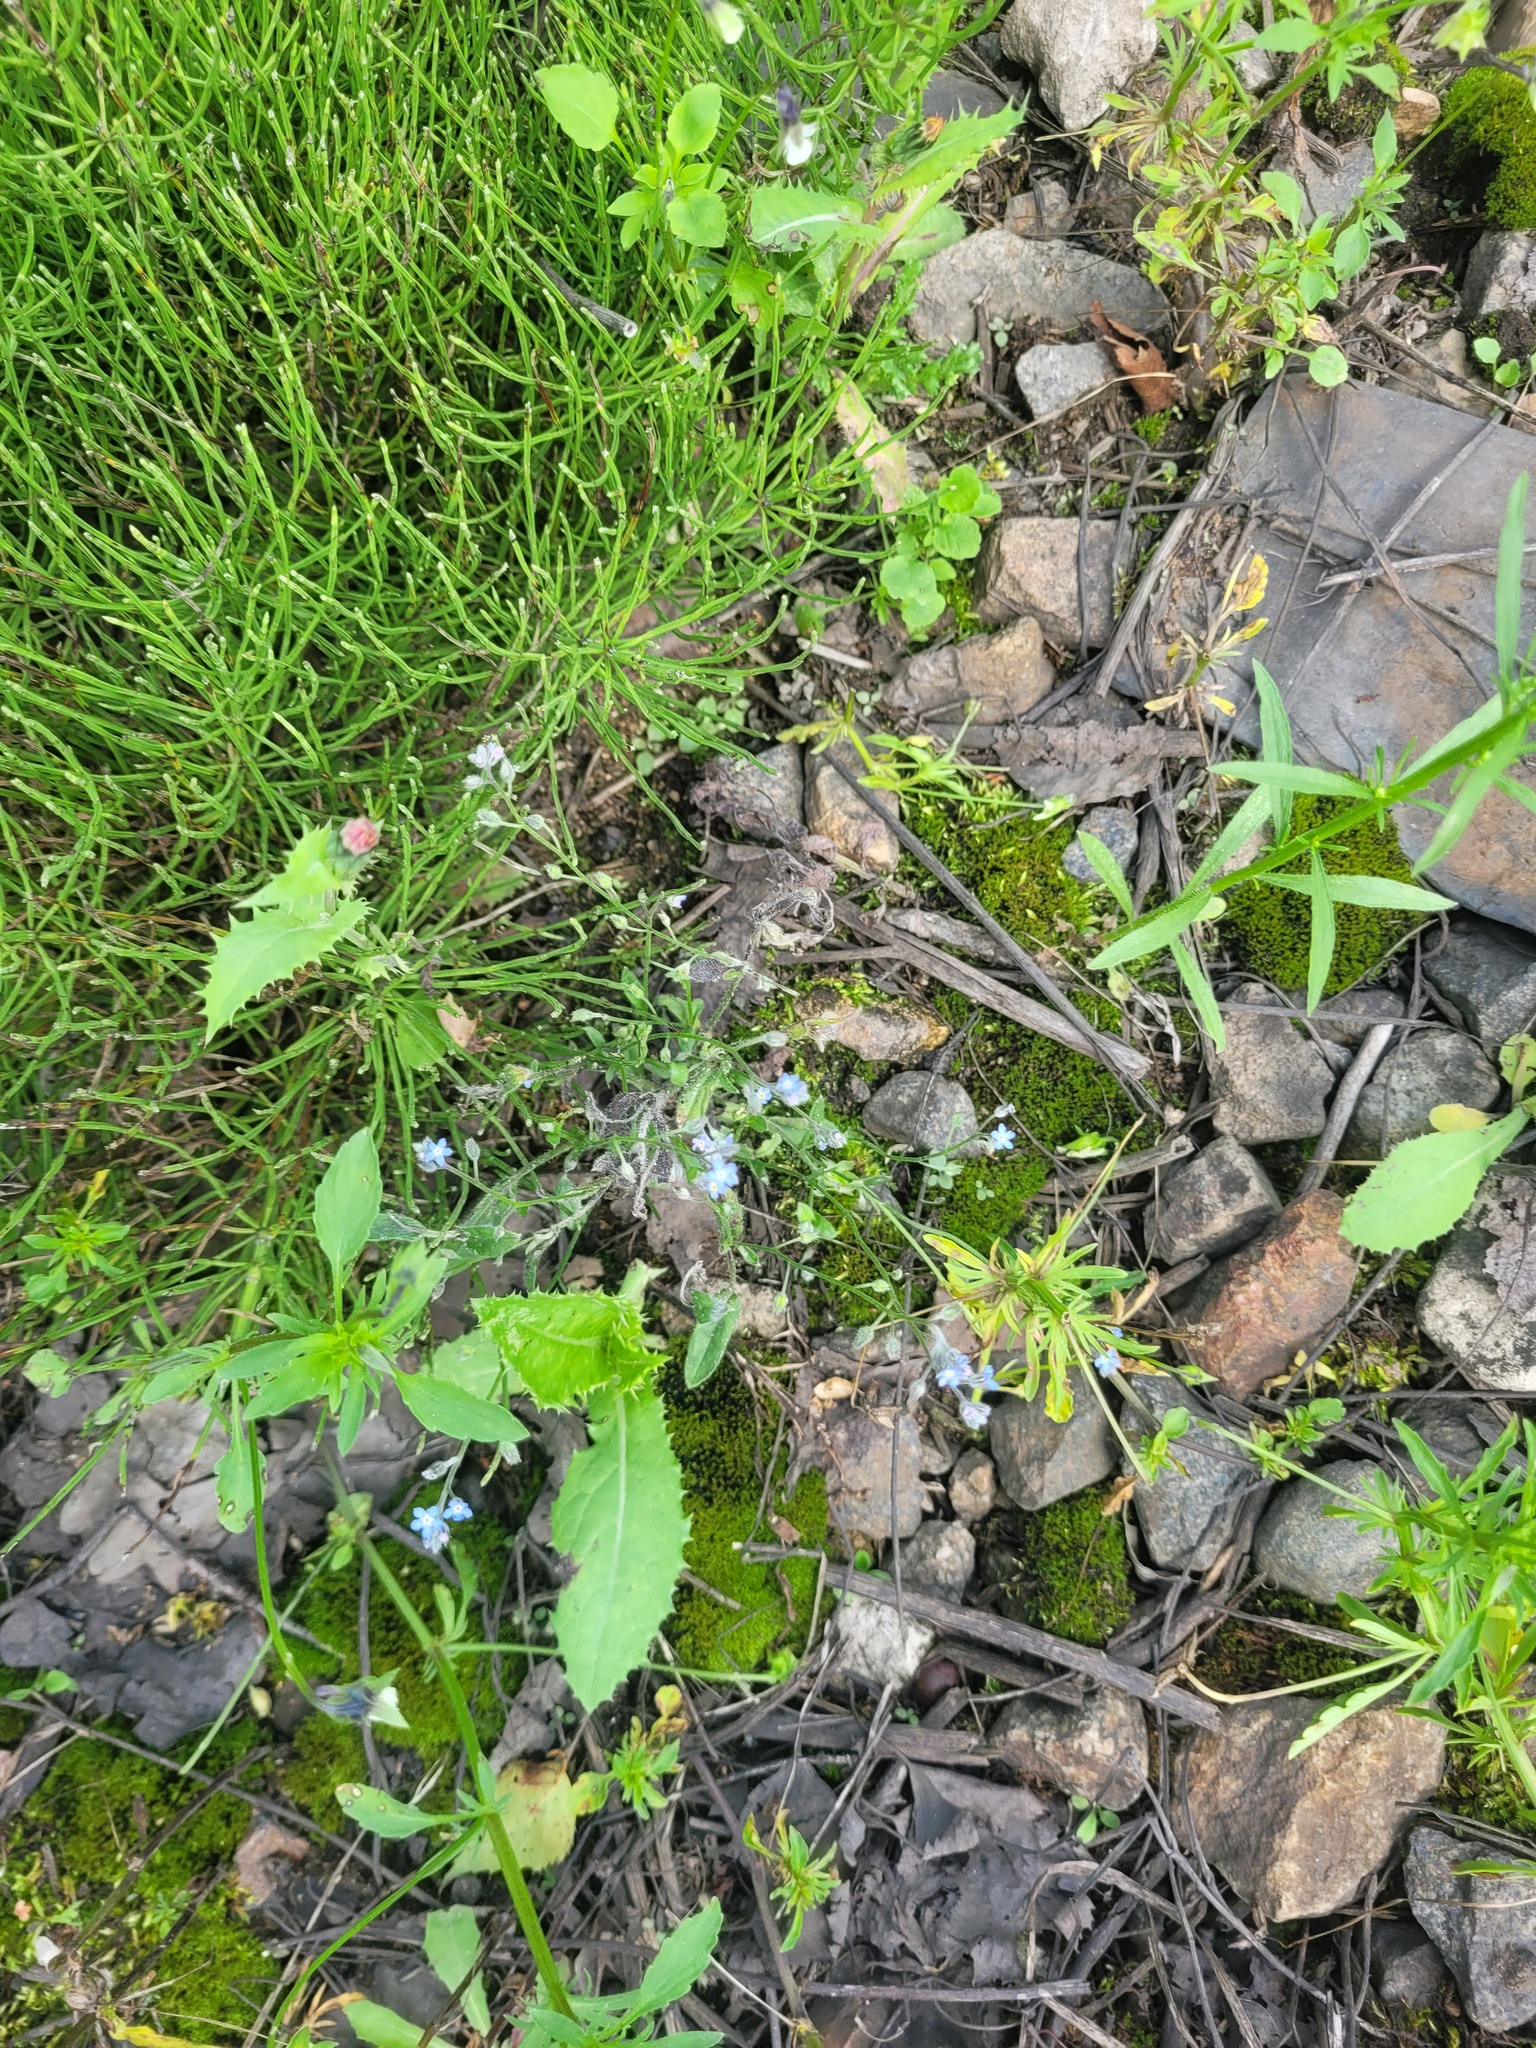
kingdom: Plantae
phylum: Tracheophyta
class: Magnoliopsida
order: Boraginales
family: Boraginaceae
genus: Myosotis
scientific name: Myosotis arvensis
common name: Field forget-me-not
